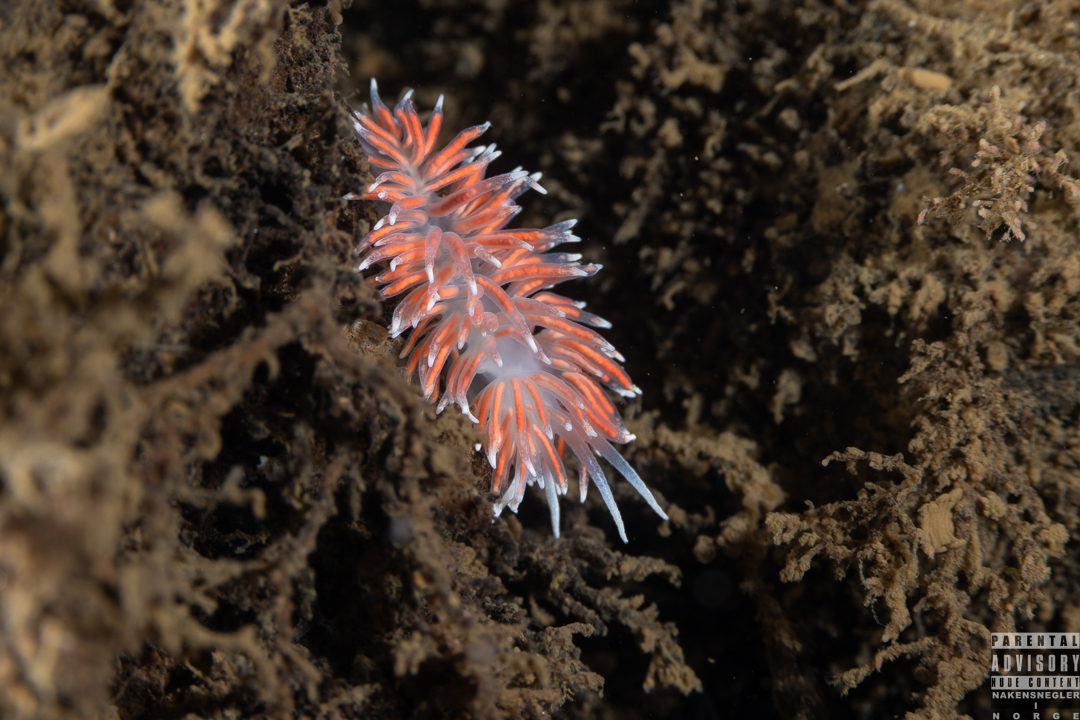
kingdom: Animalia
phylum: Mollusca
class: Gastropoda
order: Nudibranchia
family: Flabellinidae
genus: Carronella
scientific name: Carronella pellucida
